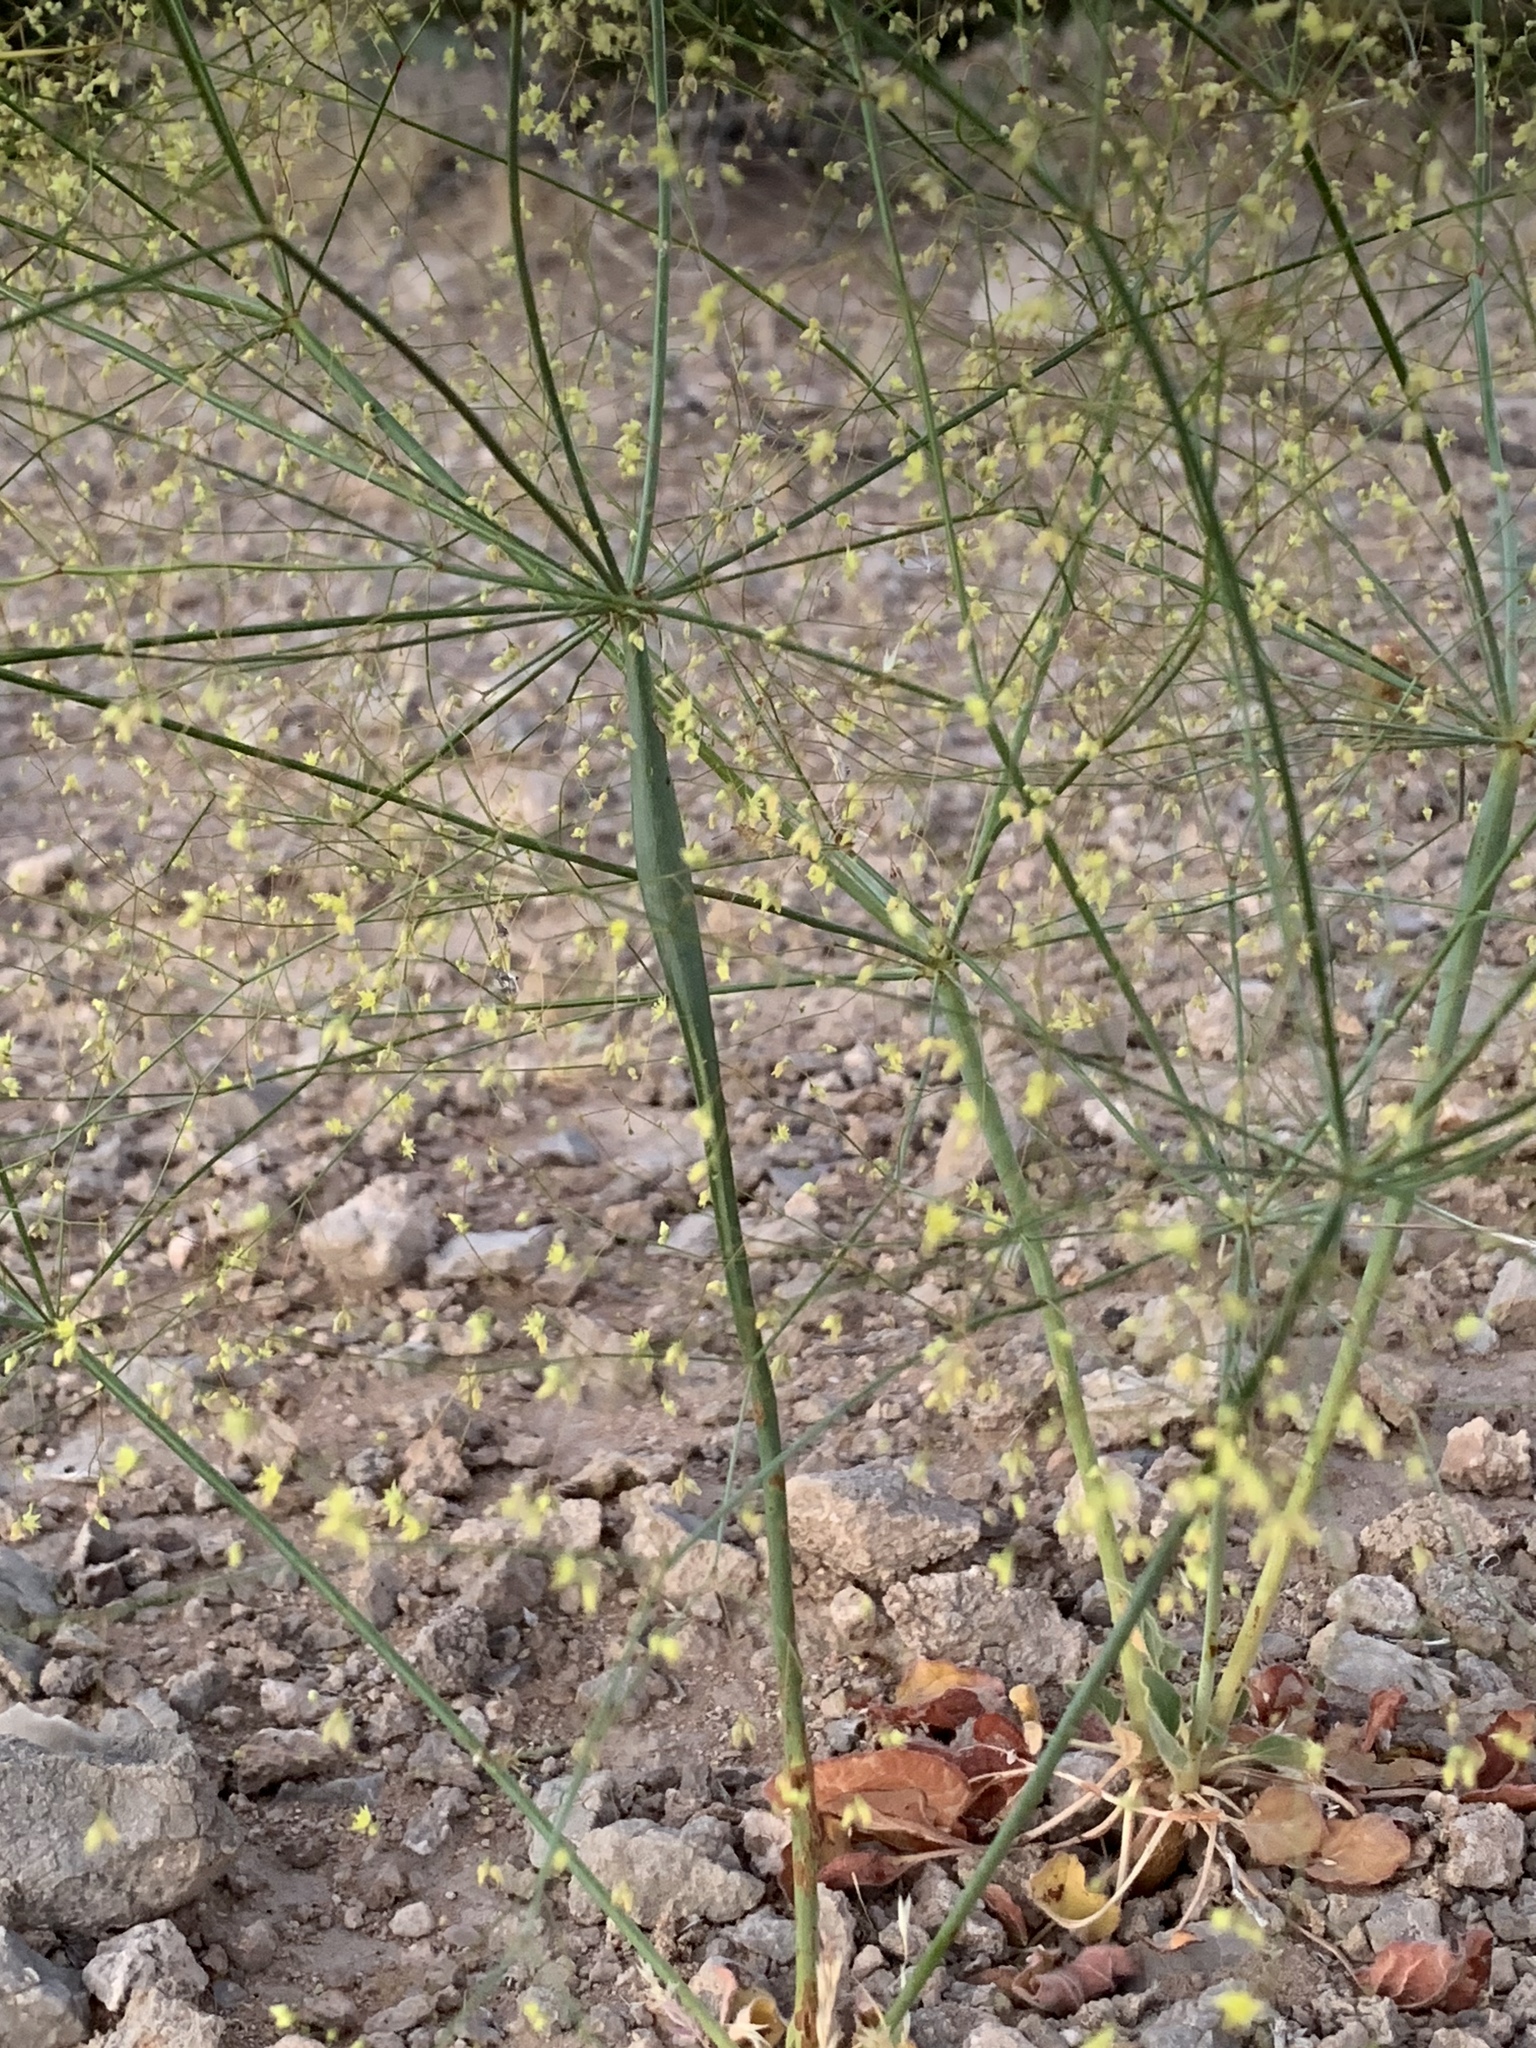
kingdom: Plantae
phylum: Tracheophyta
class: Magnoliopsida
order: Caryophyllales
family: Polygonaceae
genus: Eriogonum
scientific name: Eriogonum inflatum
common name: Desert trumpet
